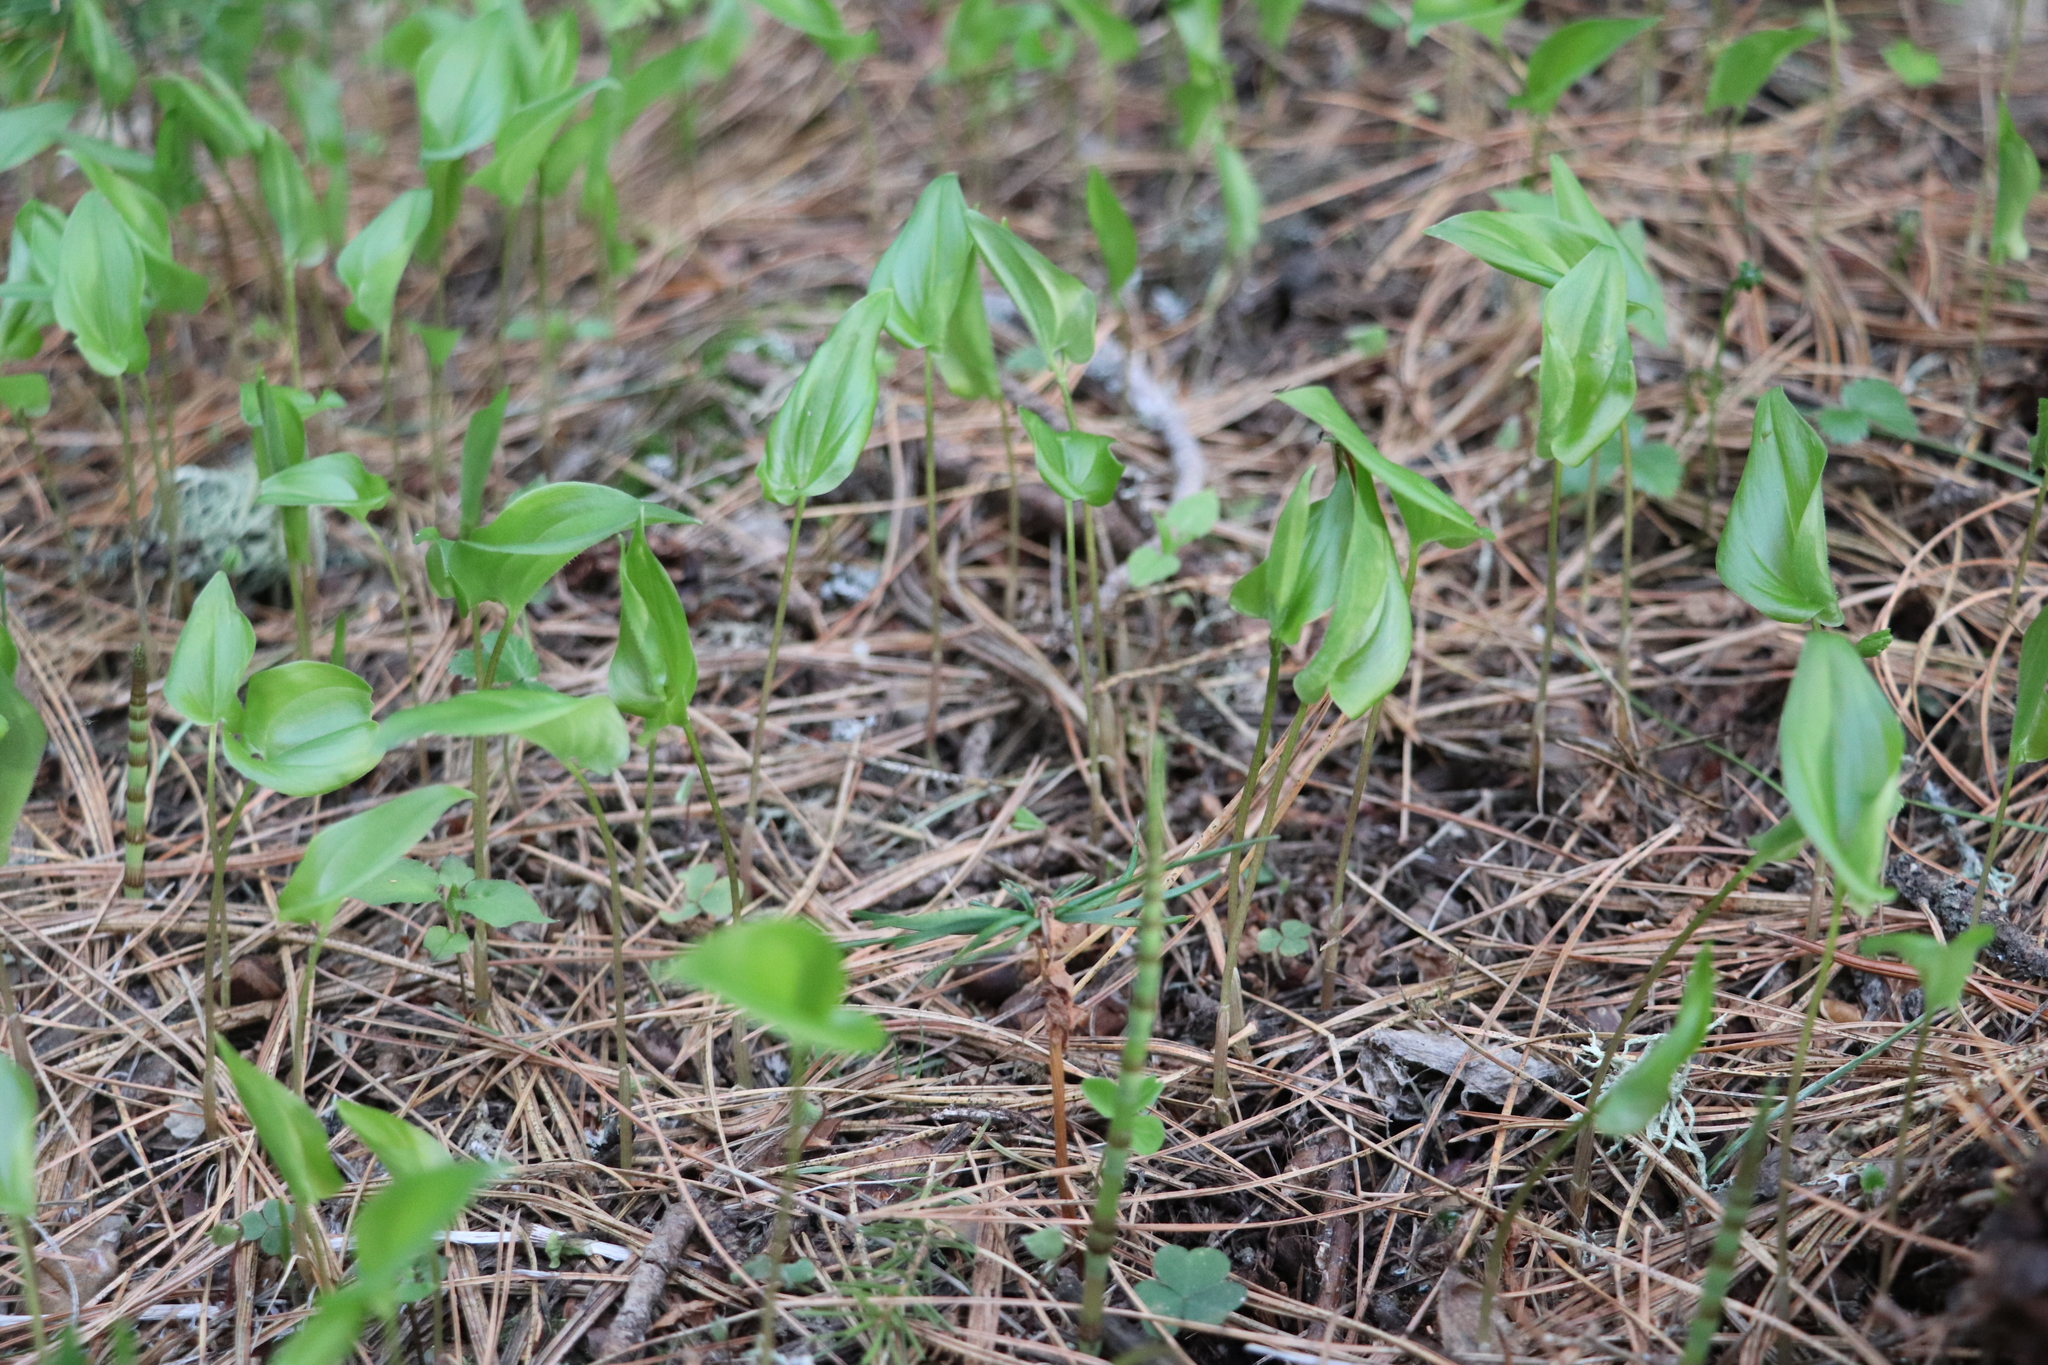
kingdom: Plantae
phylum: Tracheophyta
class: Liliopsida
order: Asparagales
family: Asparagaceae
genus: Maianthemum
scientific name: Maianthemum bifolium
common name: May lily
